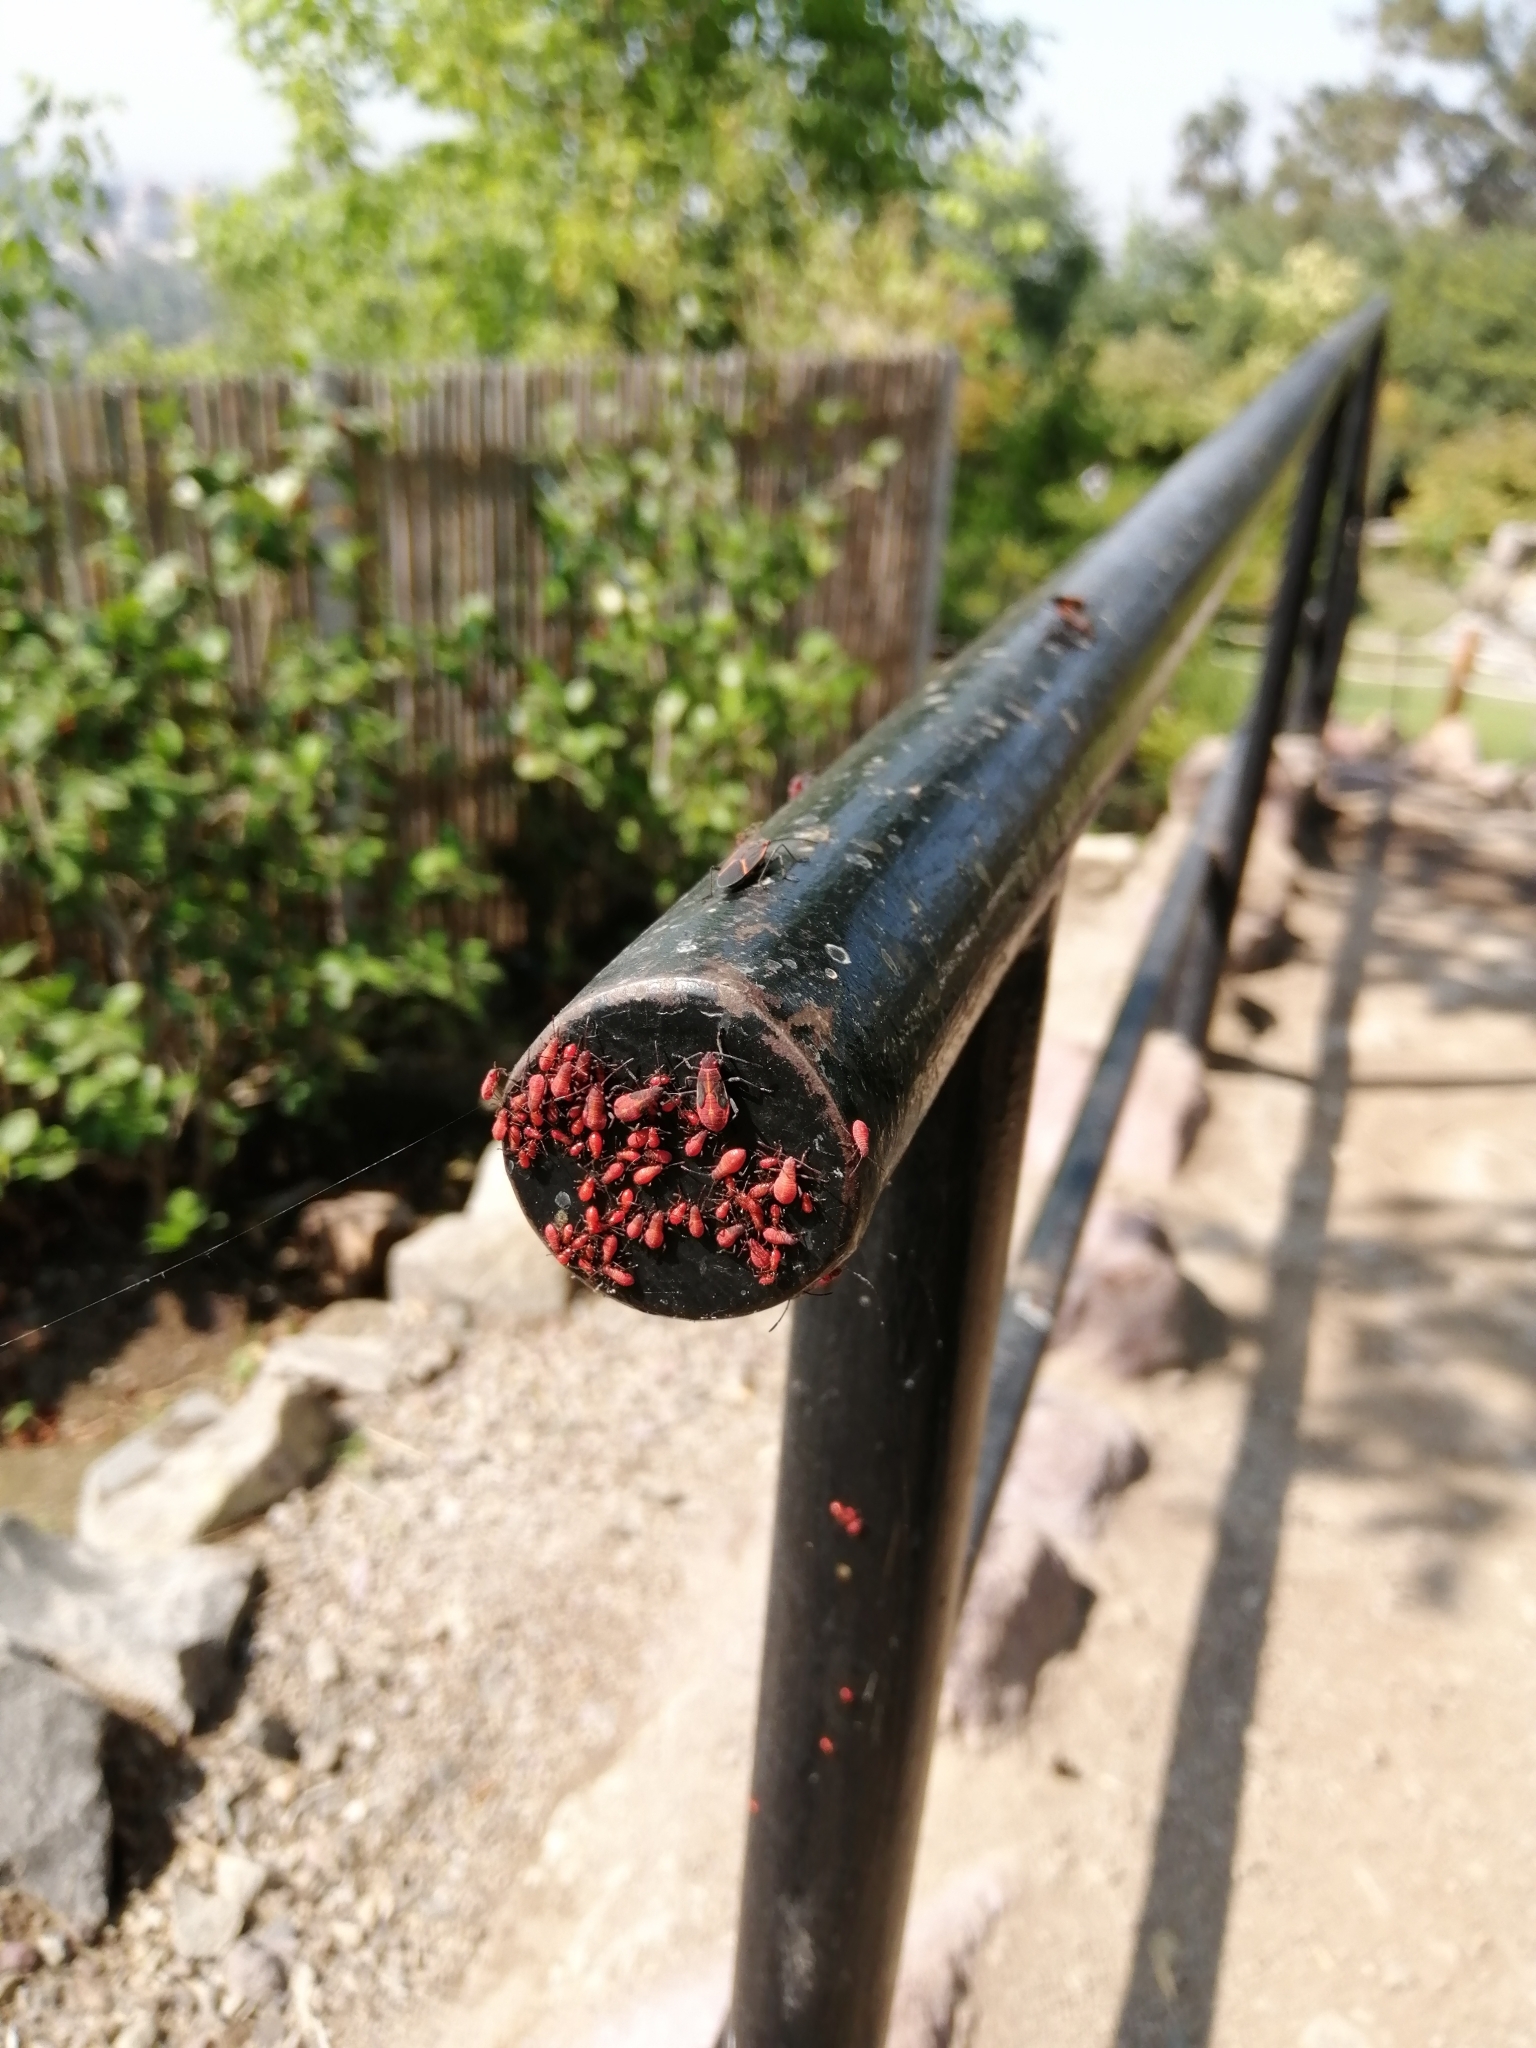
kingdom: Animalia
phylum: Arthropoda
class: Insecta
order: Hemiptera
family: Rhopalidae
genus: Boisea
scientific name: Boisea trivittata
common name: Boxelder bug
